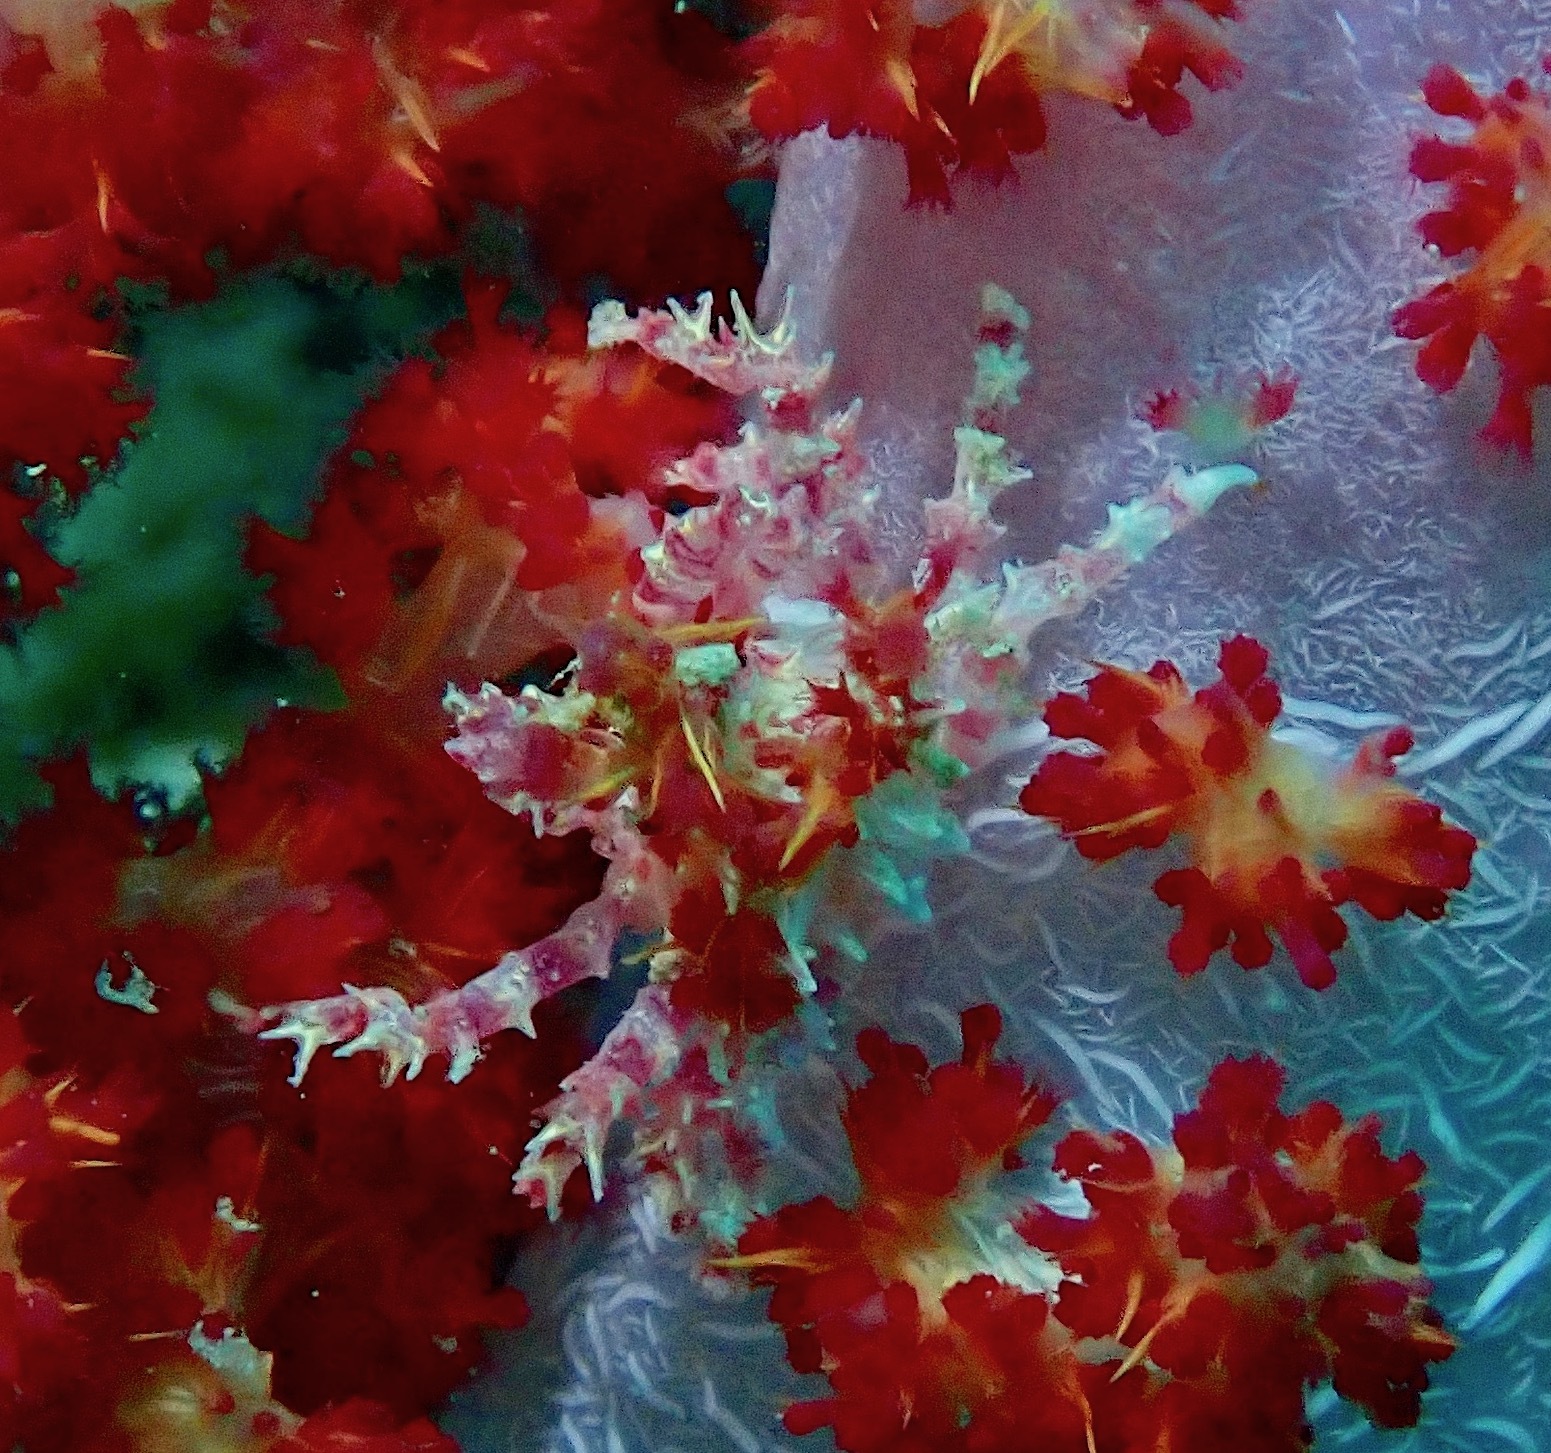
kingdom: Animalia
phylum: Arthropoda
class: Malacostraca
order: Decapoda
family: Epialtidae
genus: Hoplophrys
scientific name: Hoplophrys oatesii
